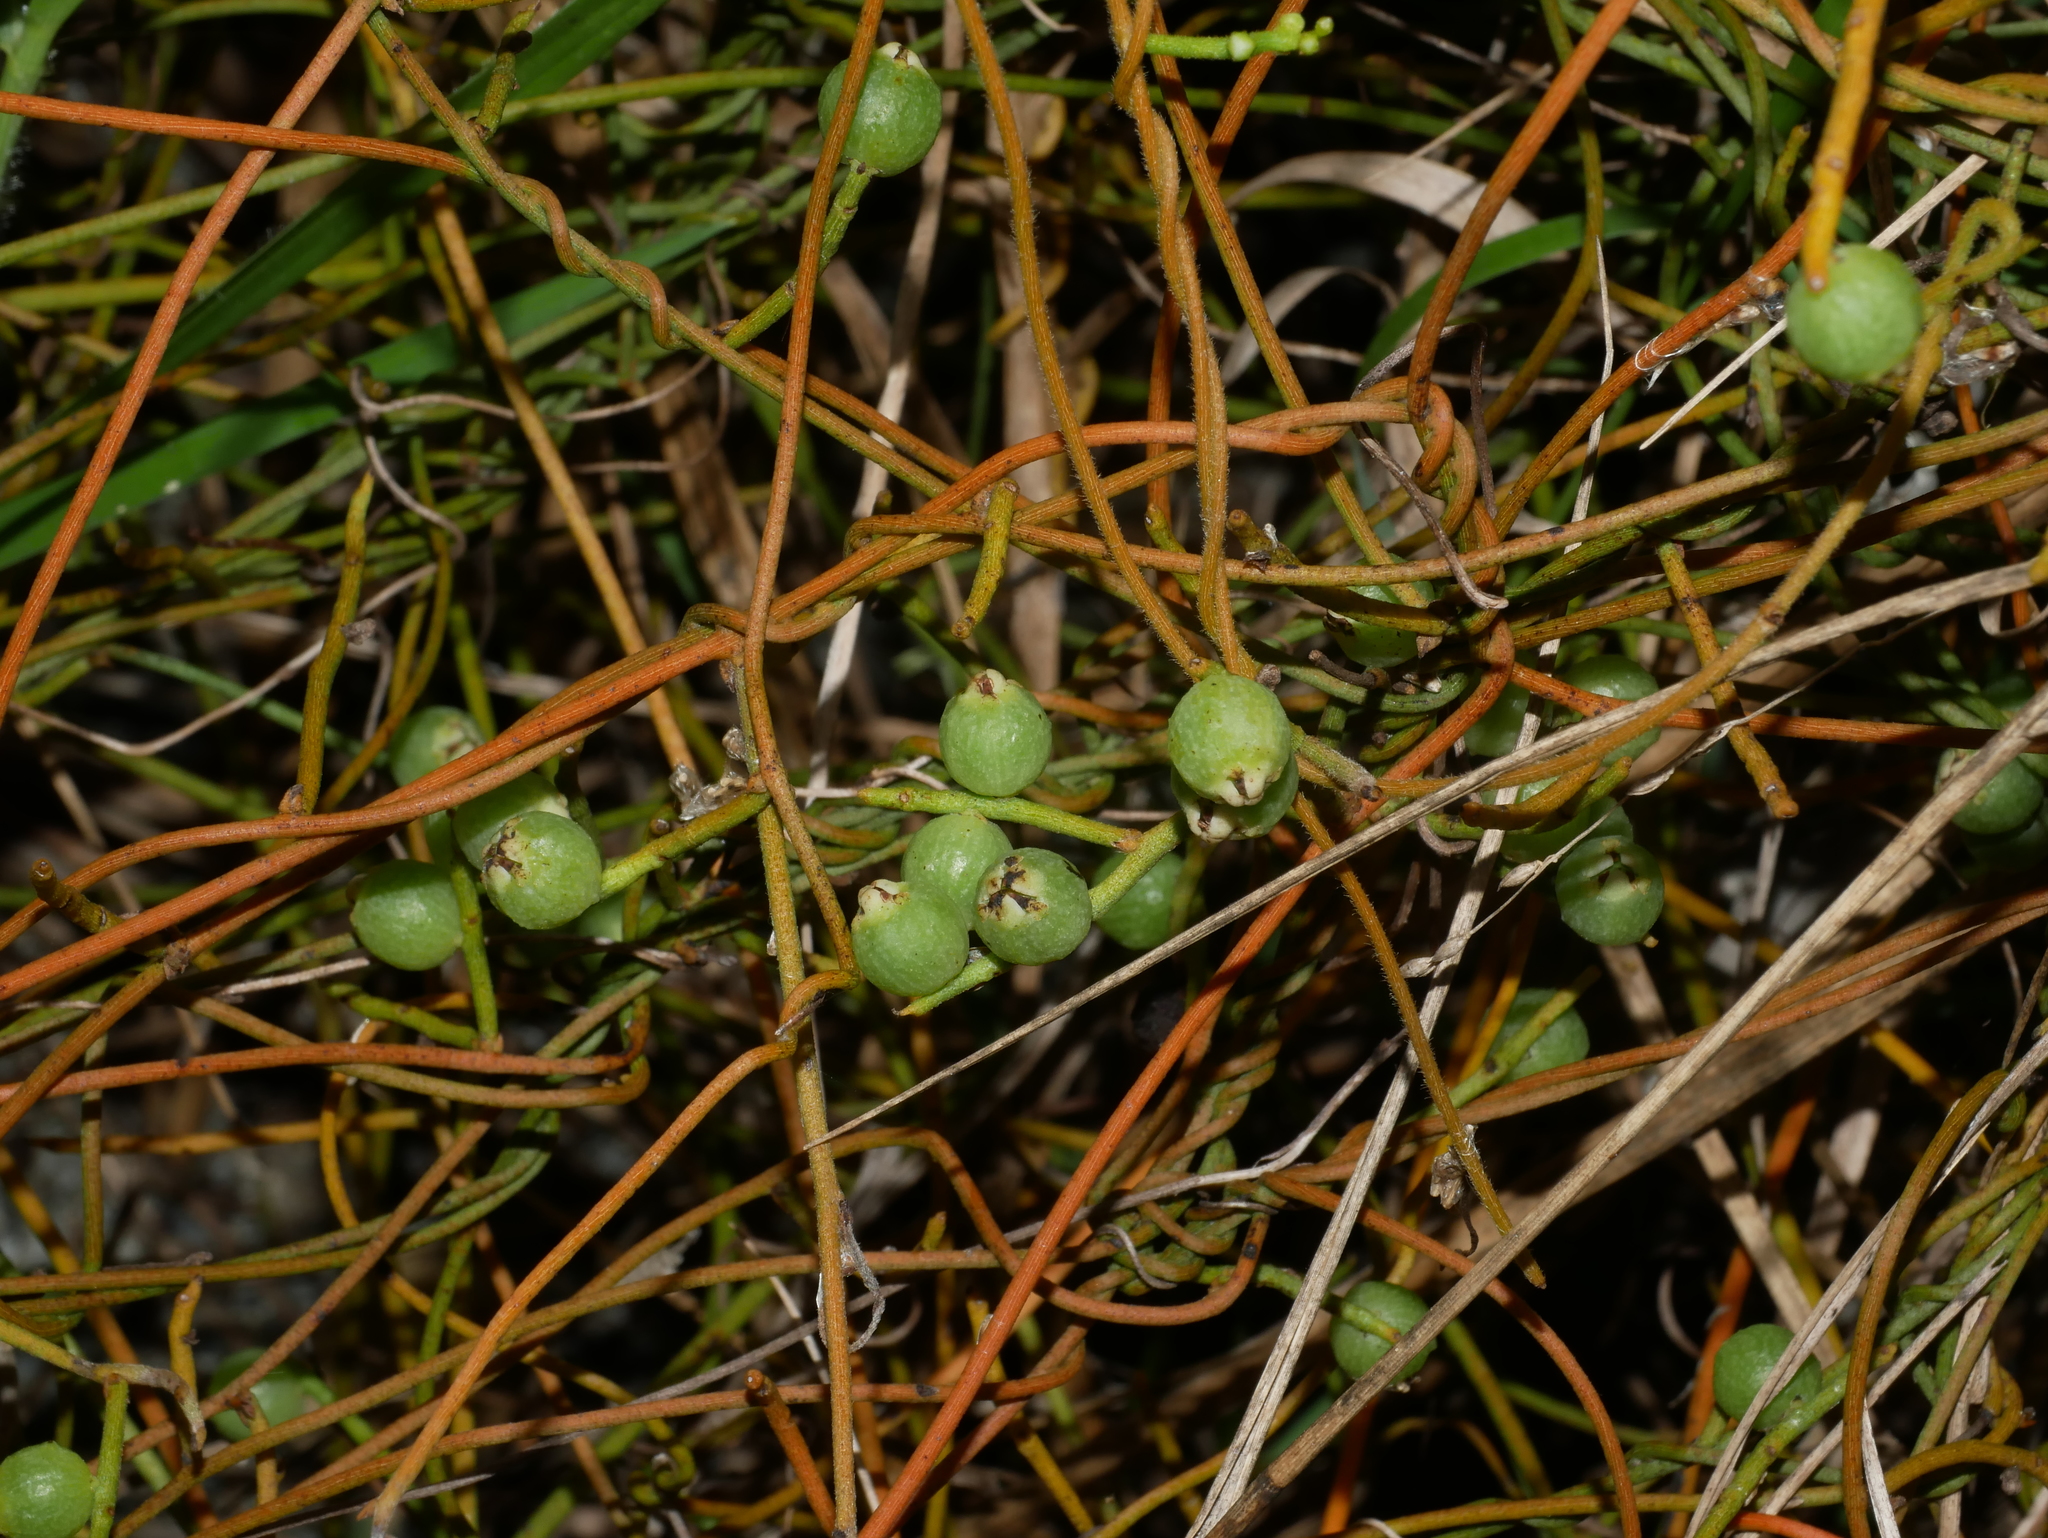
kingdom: Plantae
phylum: Tracheophyta
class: Magnoliopsida
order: Laurales
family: Lauraceae
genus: Cassytha
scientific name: Cassytha filiformis
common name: Dodder-laurel
